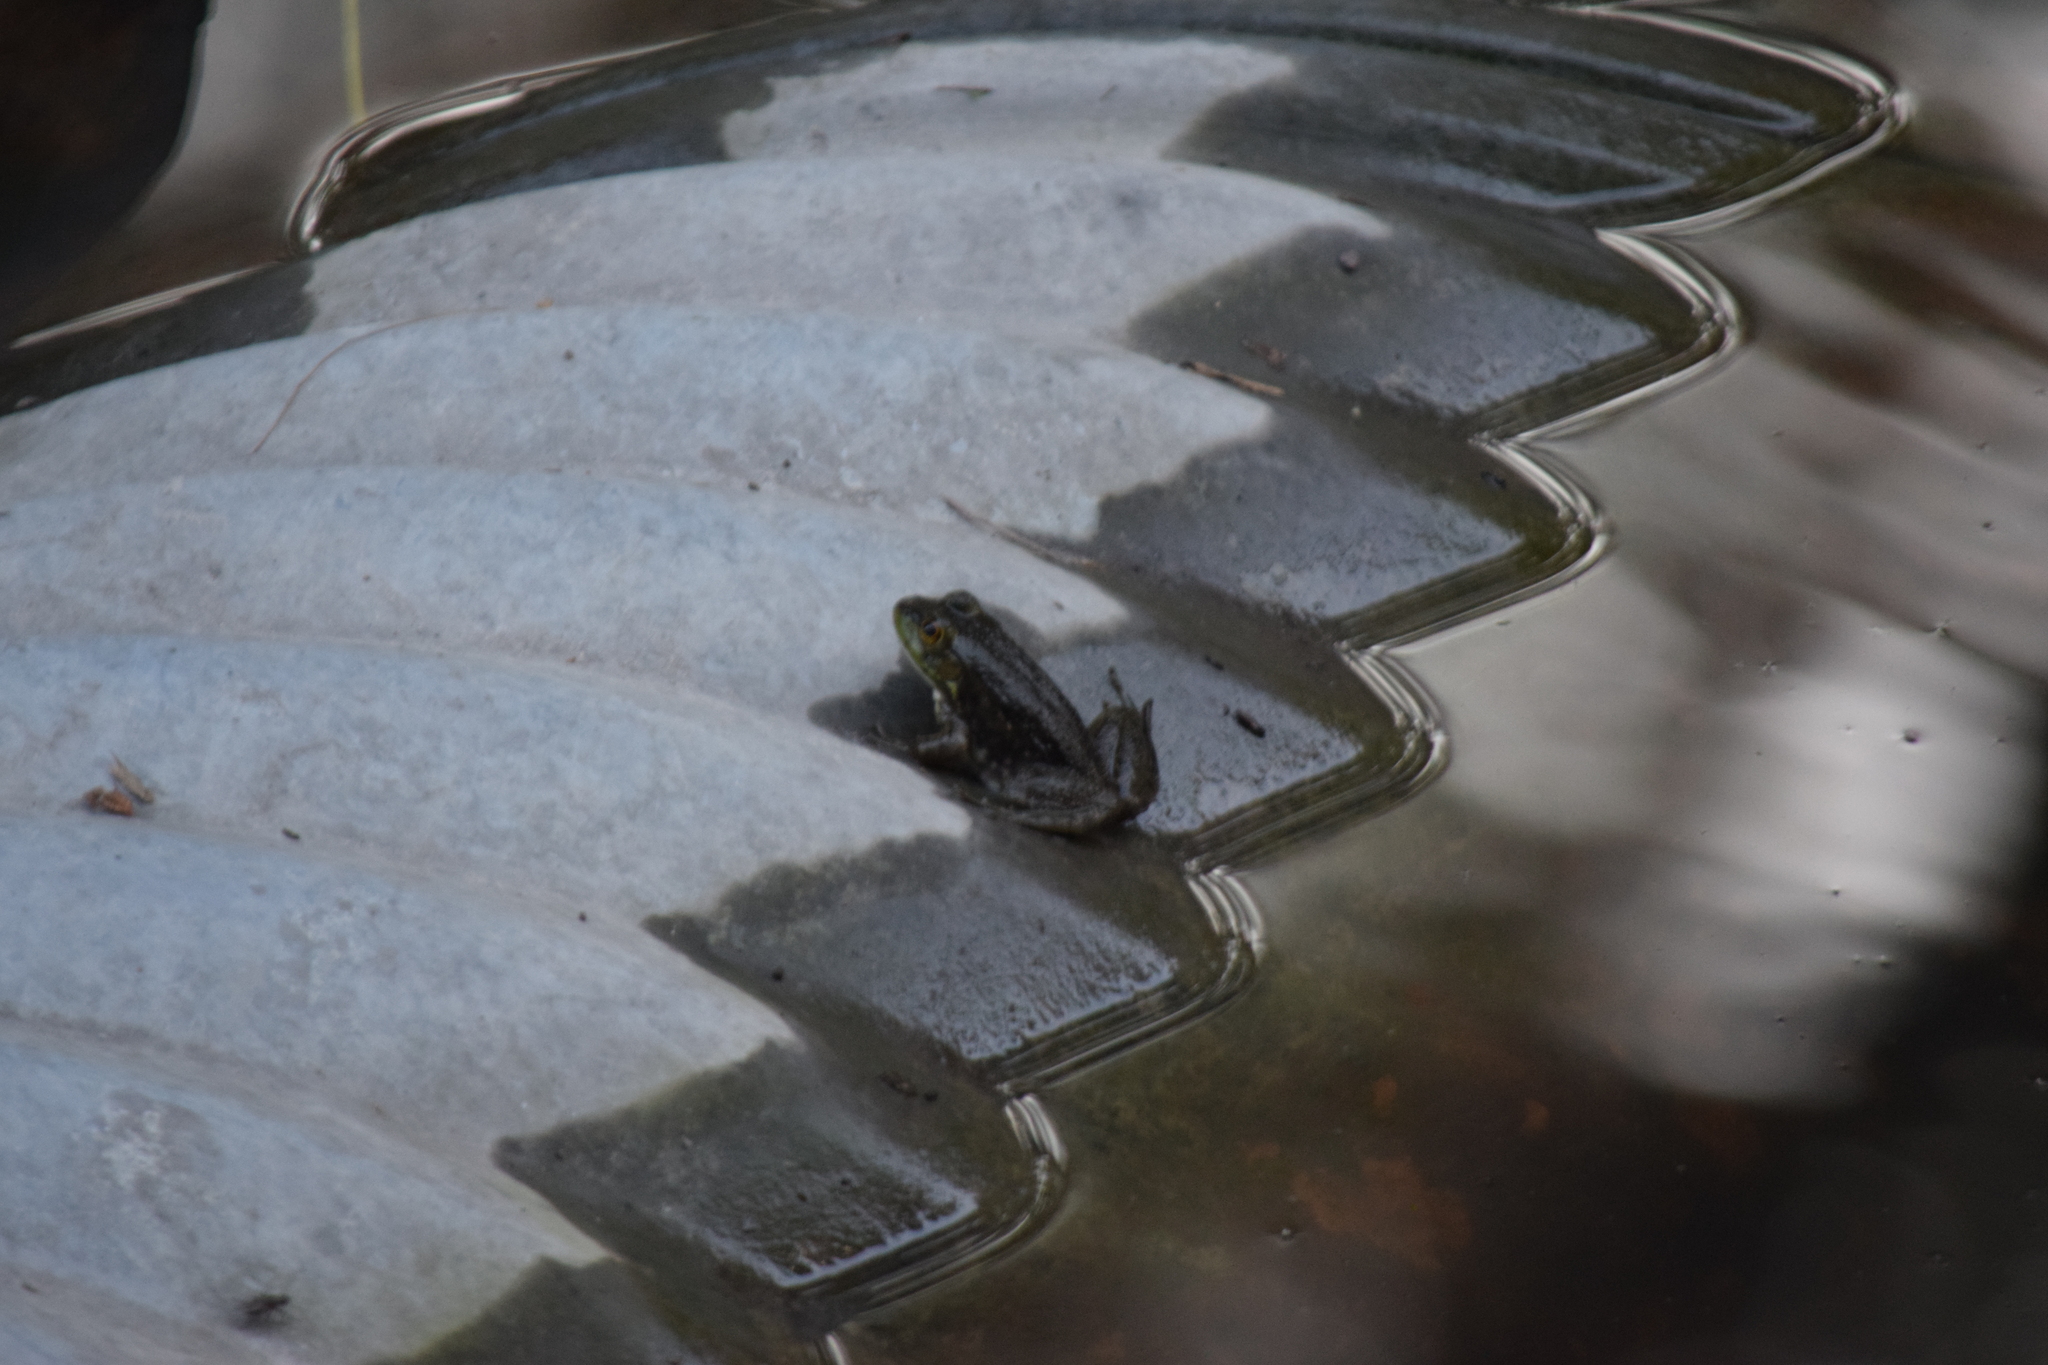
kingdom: Animalia
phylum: Chordata
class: Amphibia
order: Anura
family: Ranidae
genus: Lithobates
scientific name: Lithobates catesbeianus
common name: American bullfrog
